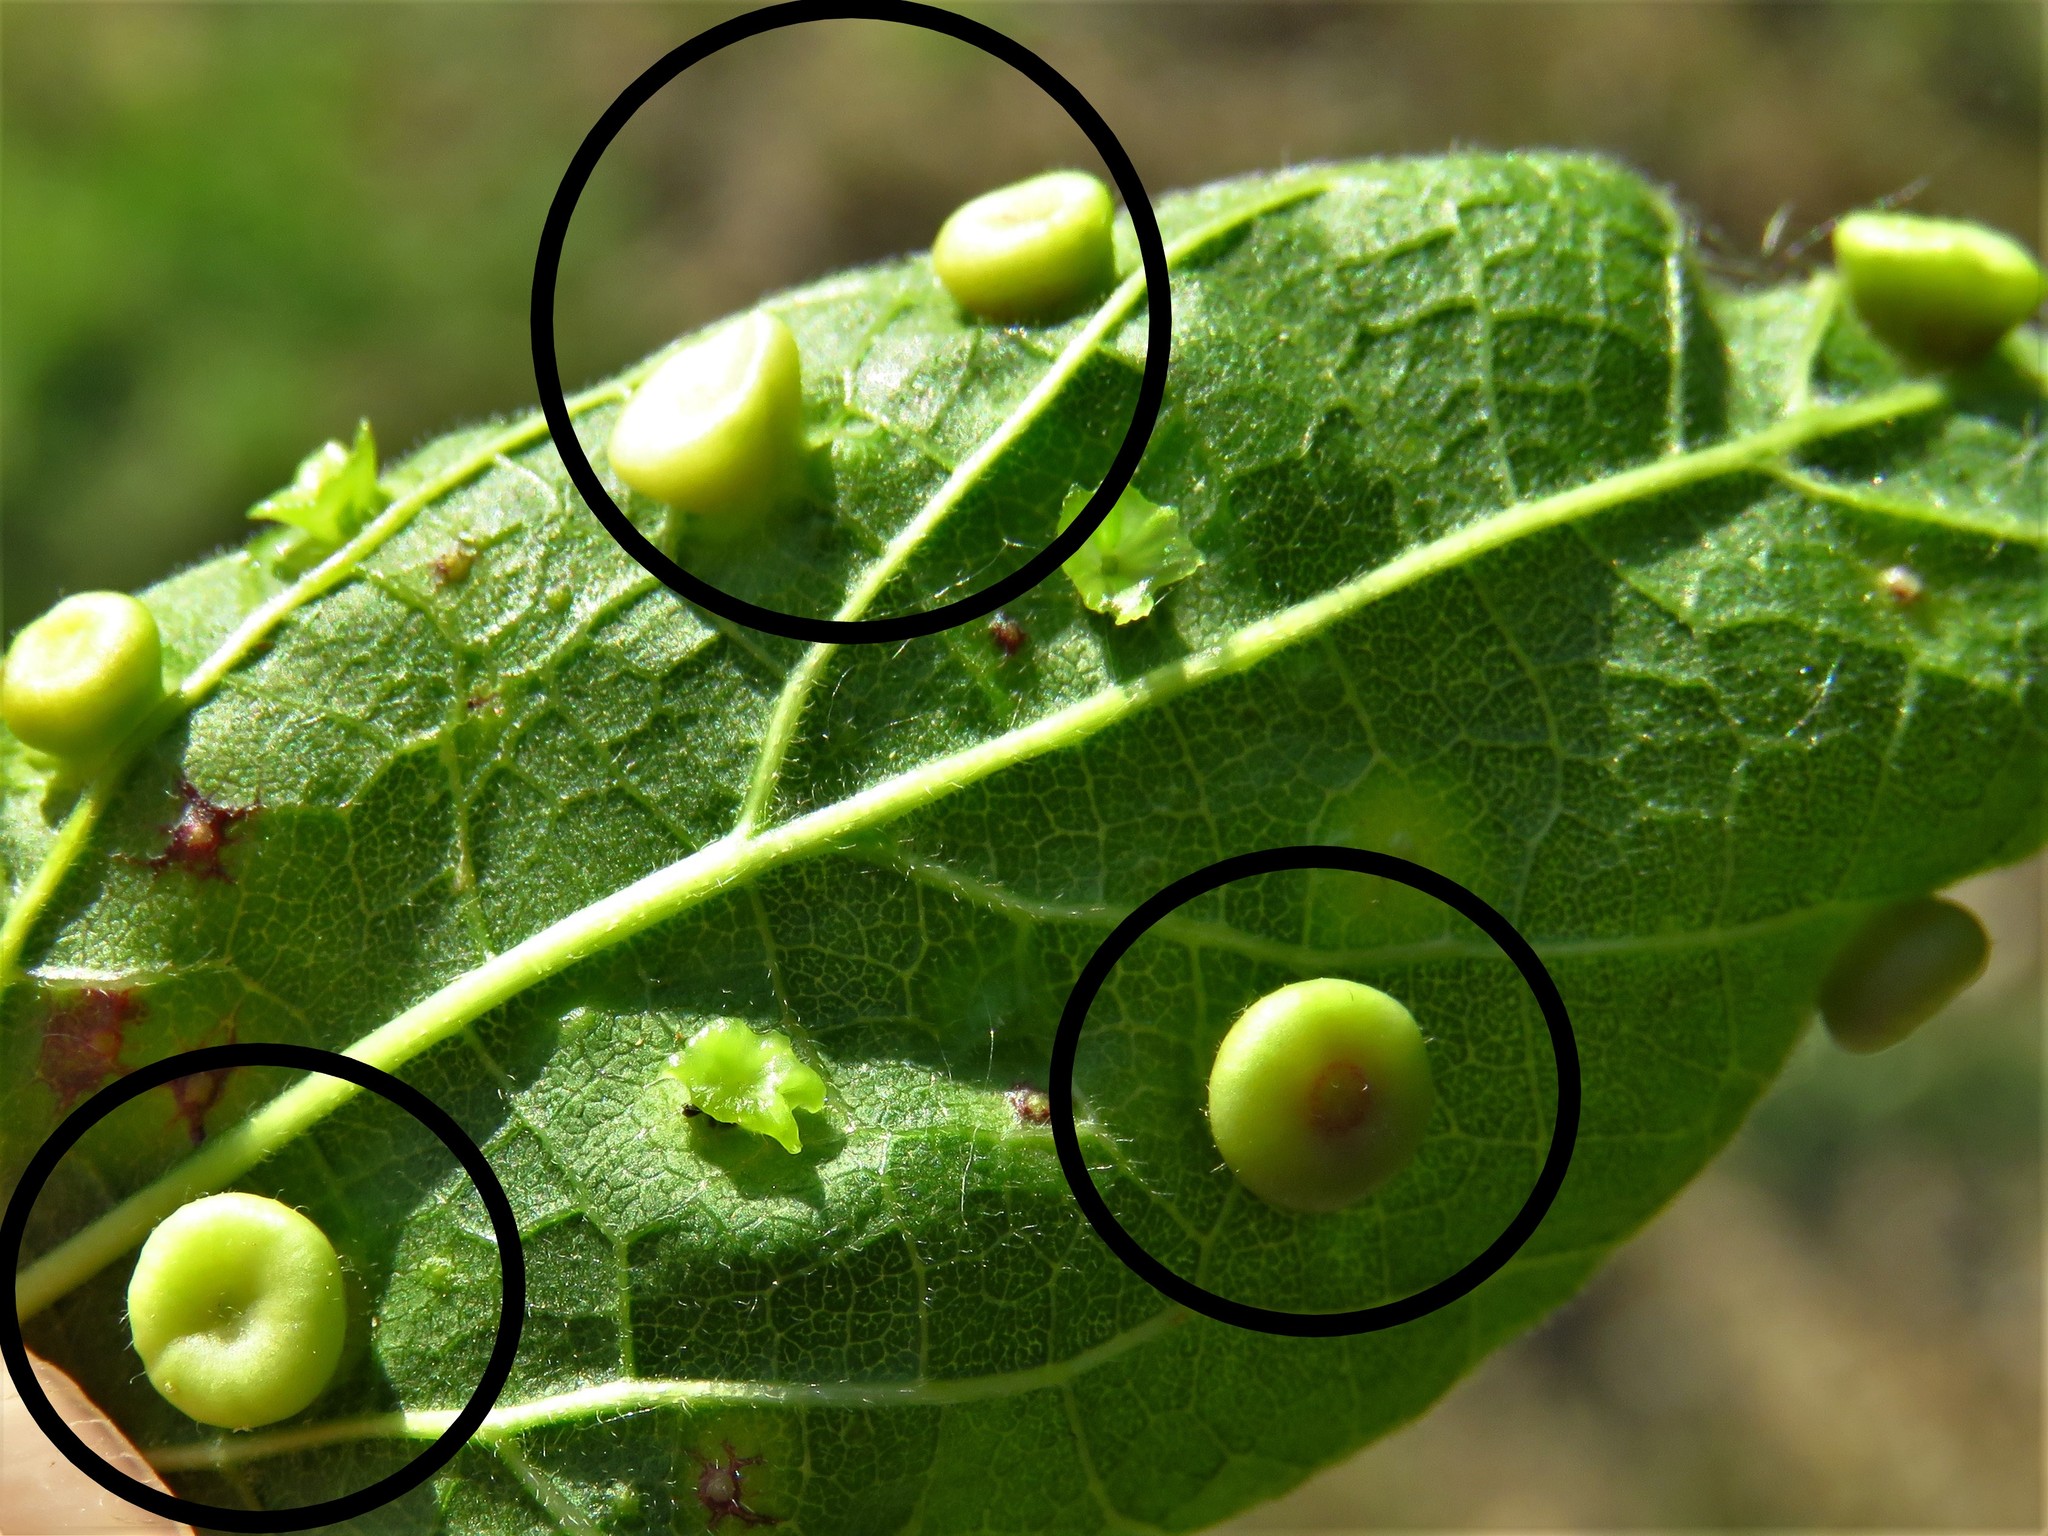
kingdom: Animalia
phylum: Arthropoda
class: Insecta
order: Hemiptera
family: Aphalaridae
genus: Pachypsylla
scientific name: Pachypsylla celtidismamma
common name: Hackberry nipplegall psyllid
